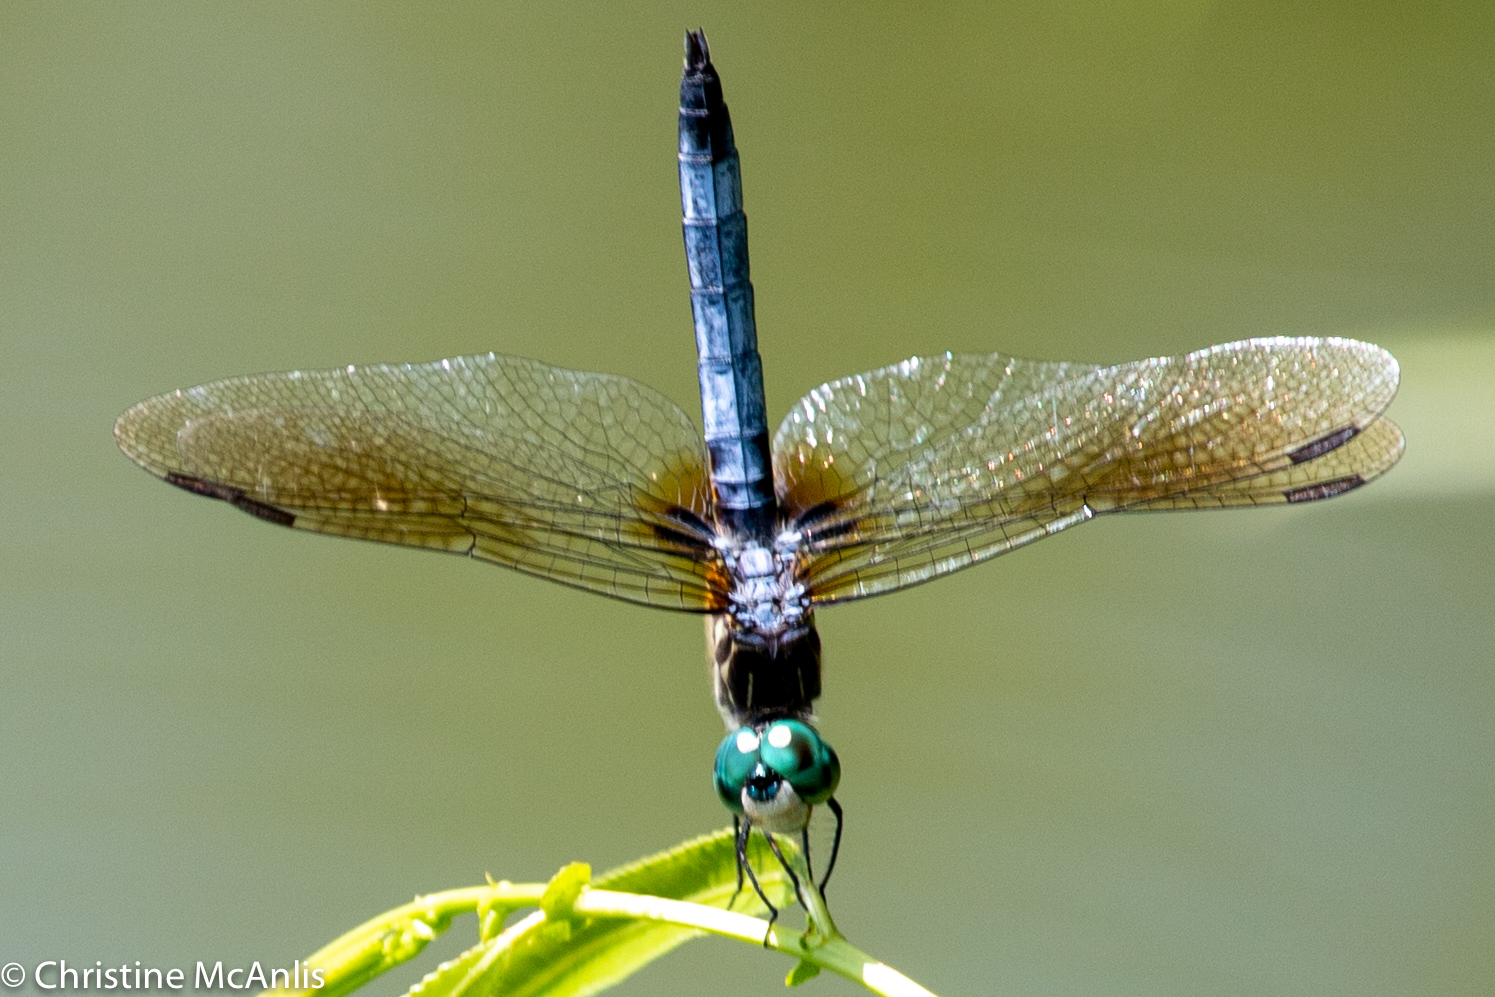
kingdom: Animalia
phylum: Arthropoda
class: Insecta
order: Odonata
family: Libellulidae
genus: Pachydiplax
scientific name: Pachydiplax longipennis
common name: Blue dasher
